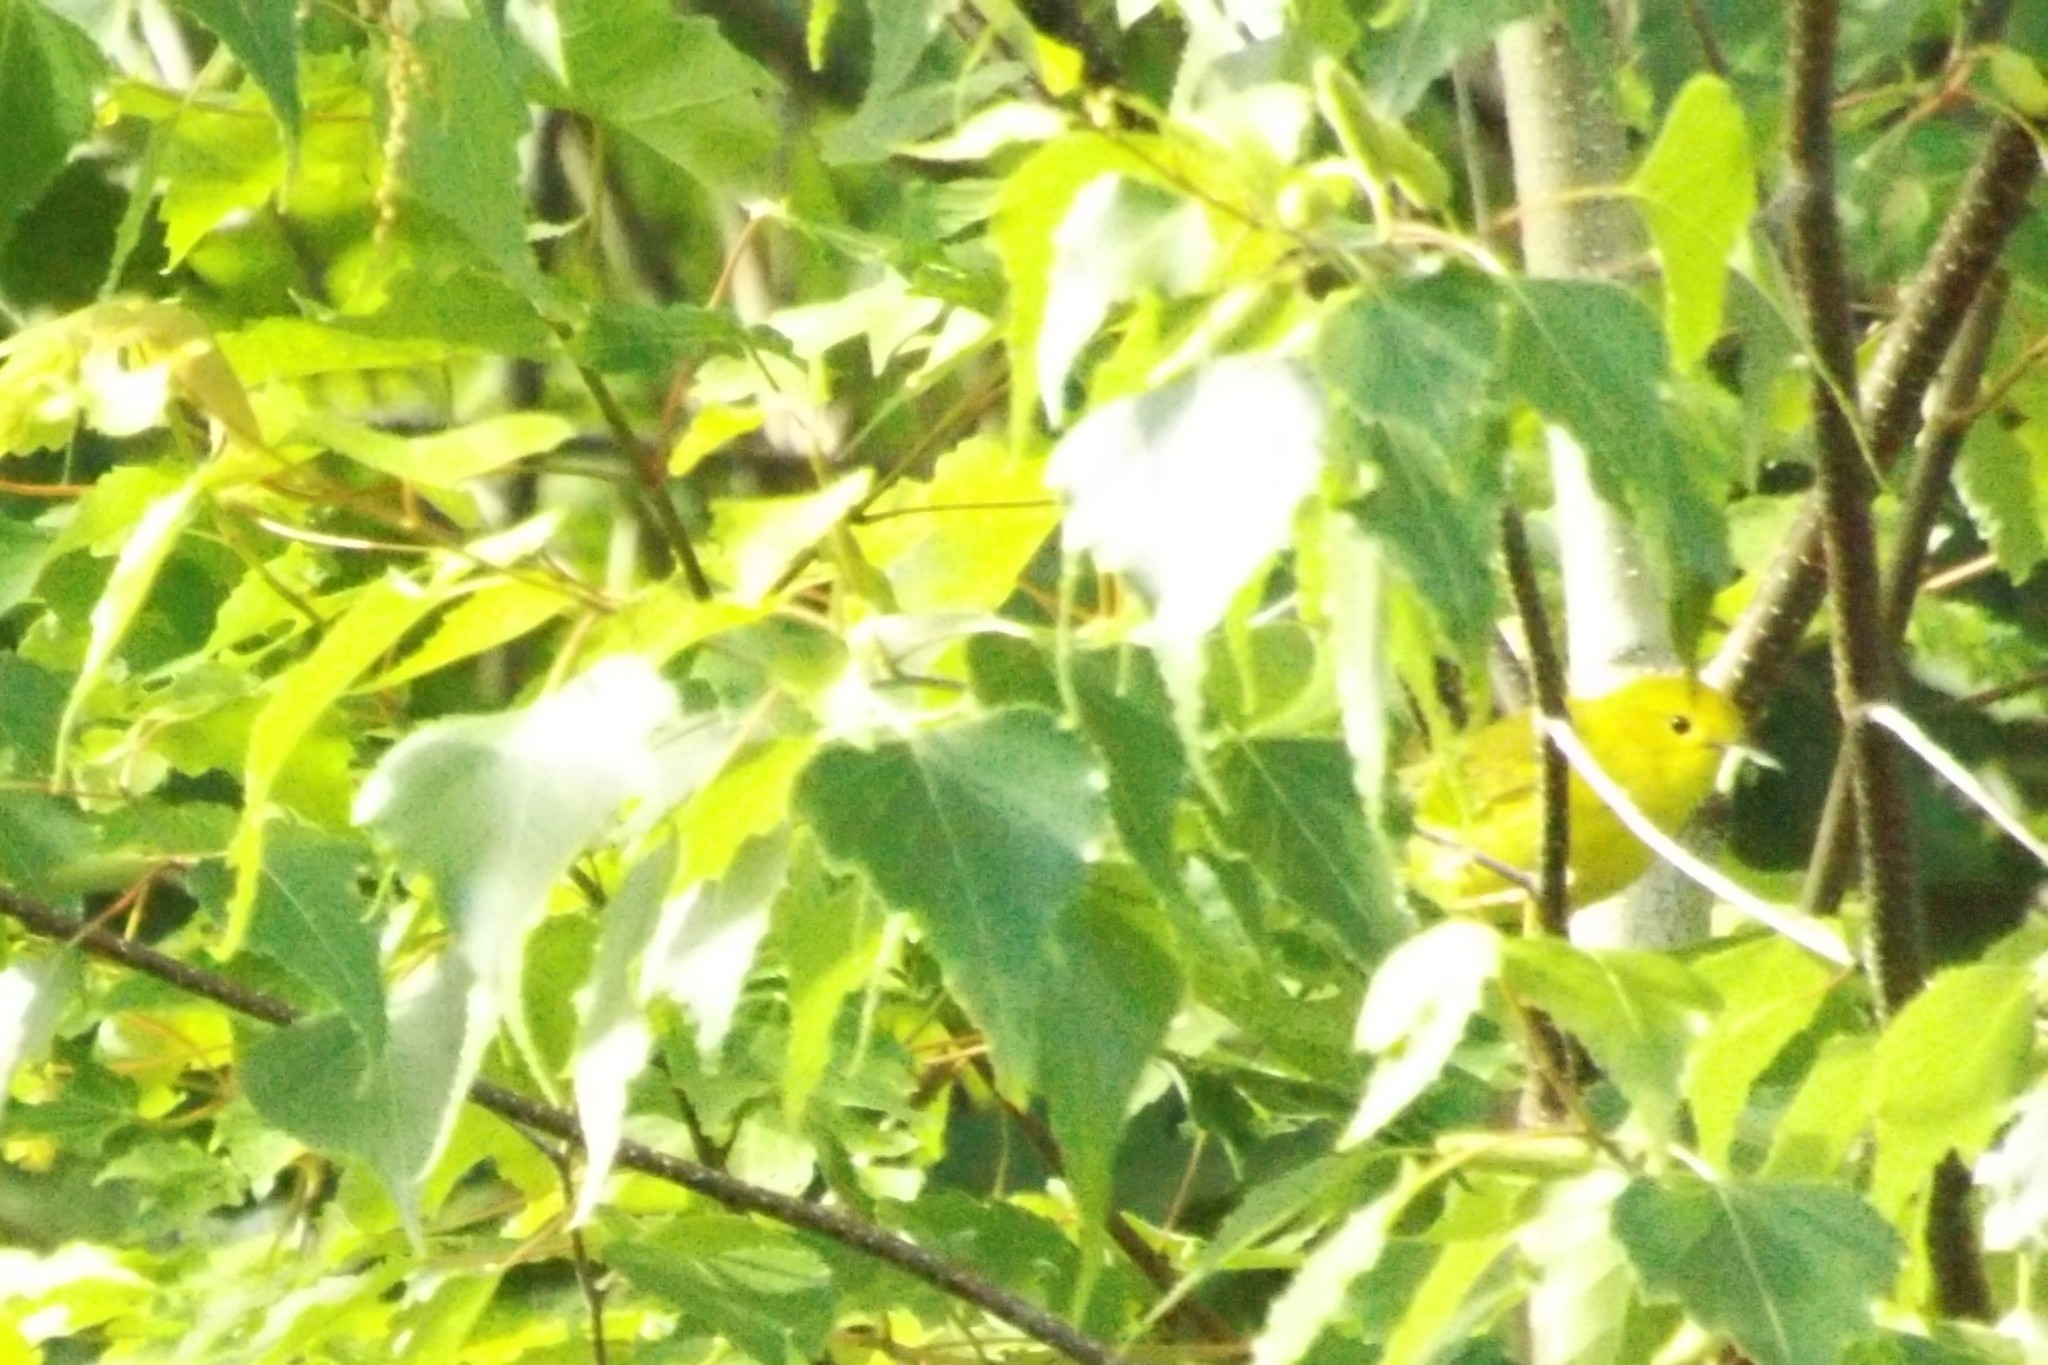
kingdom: Animalia
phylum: Chordata
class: Aves
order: Passeriformes
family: Parulidae
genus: Setophaga
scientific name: Setophaga petechia
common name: Yellow warbler
